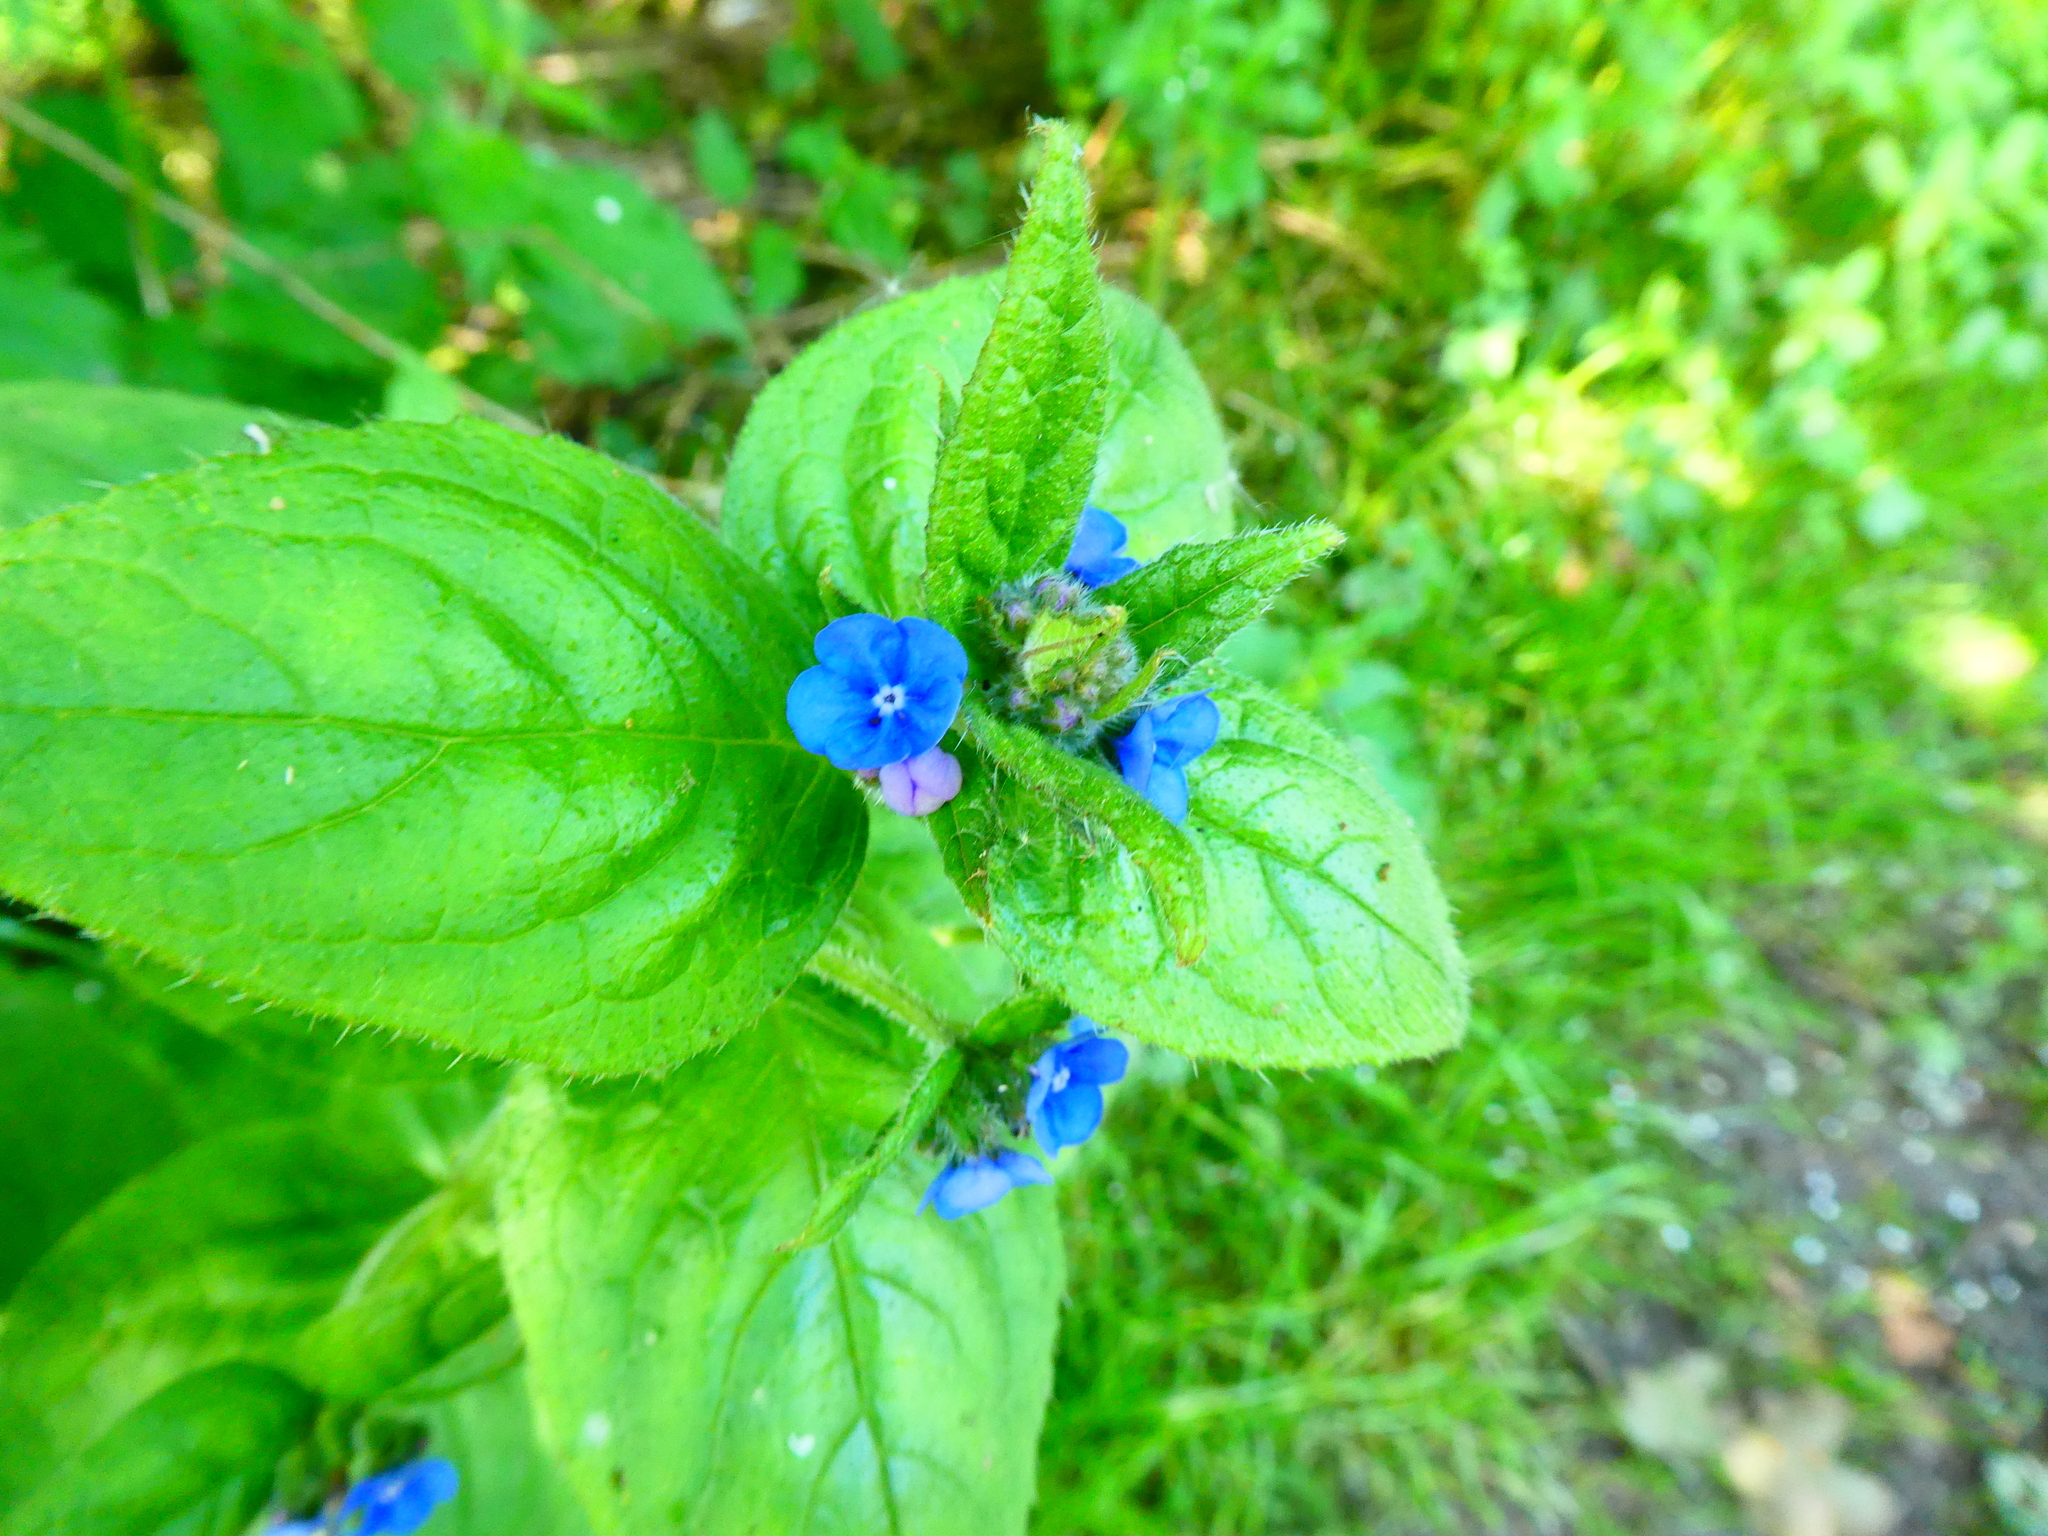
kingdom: Plantae
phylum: Tracheophyta
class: Magnoliopsida
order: Boraginales
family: Boraginaceae
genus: Pentaglottis
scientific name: Pentaglottis sempervirens
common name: Green alkanet
